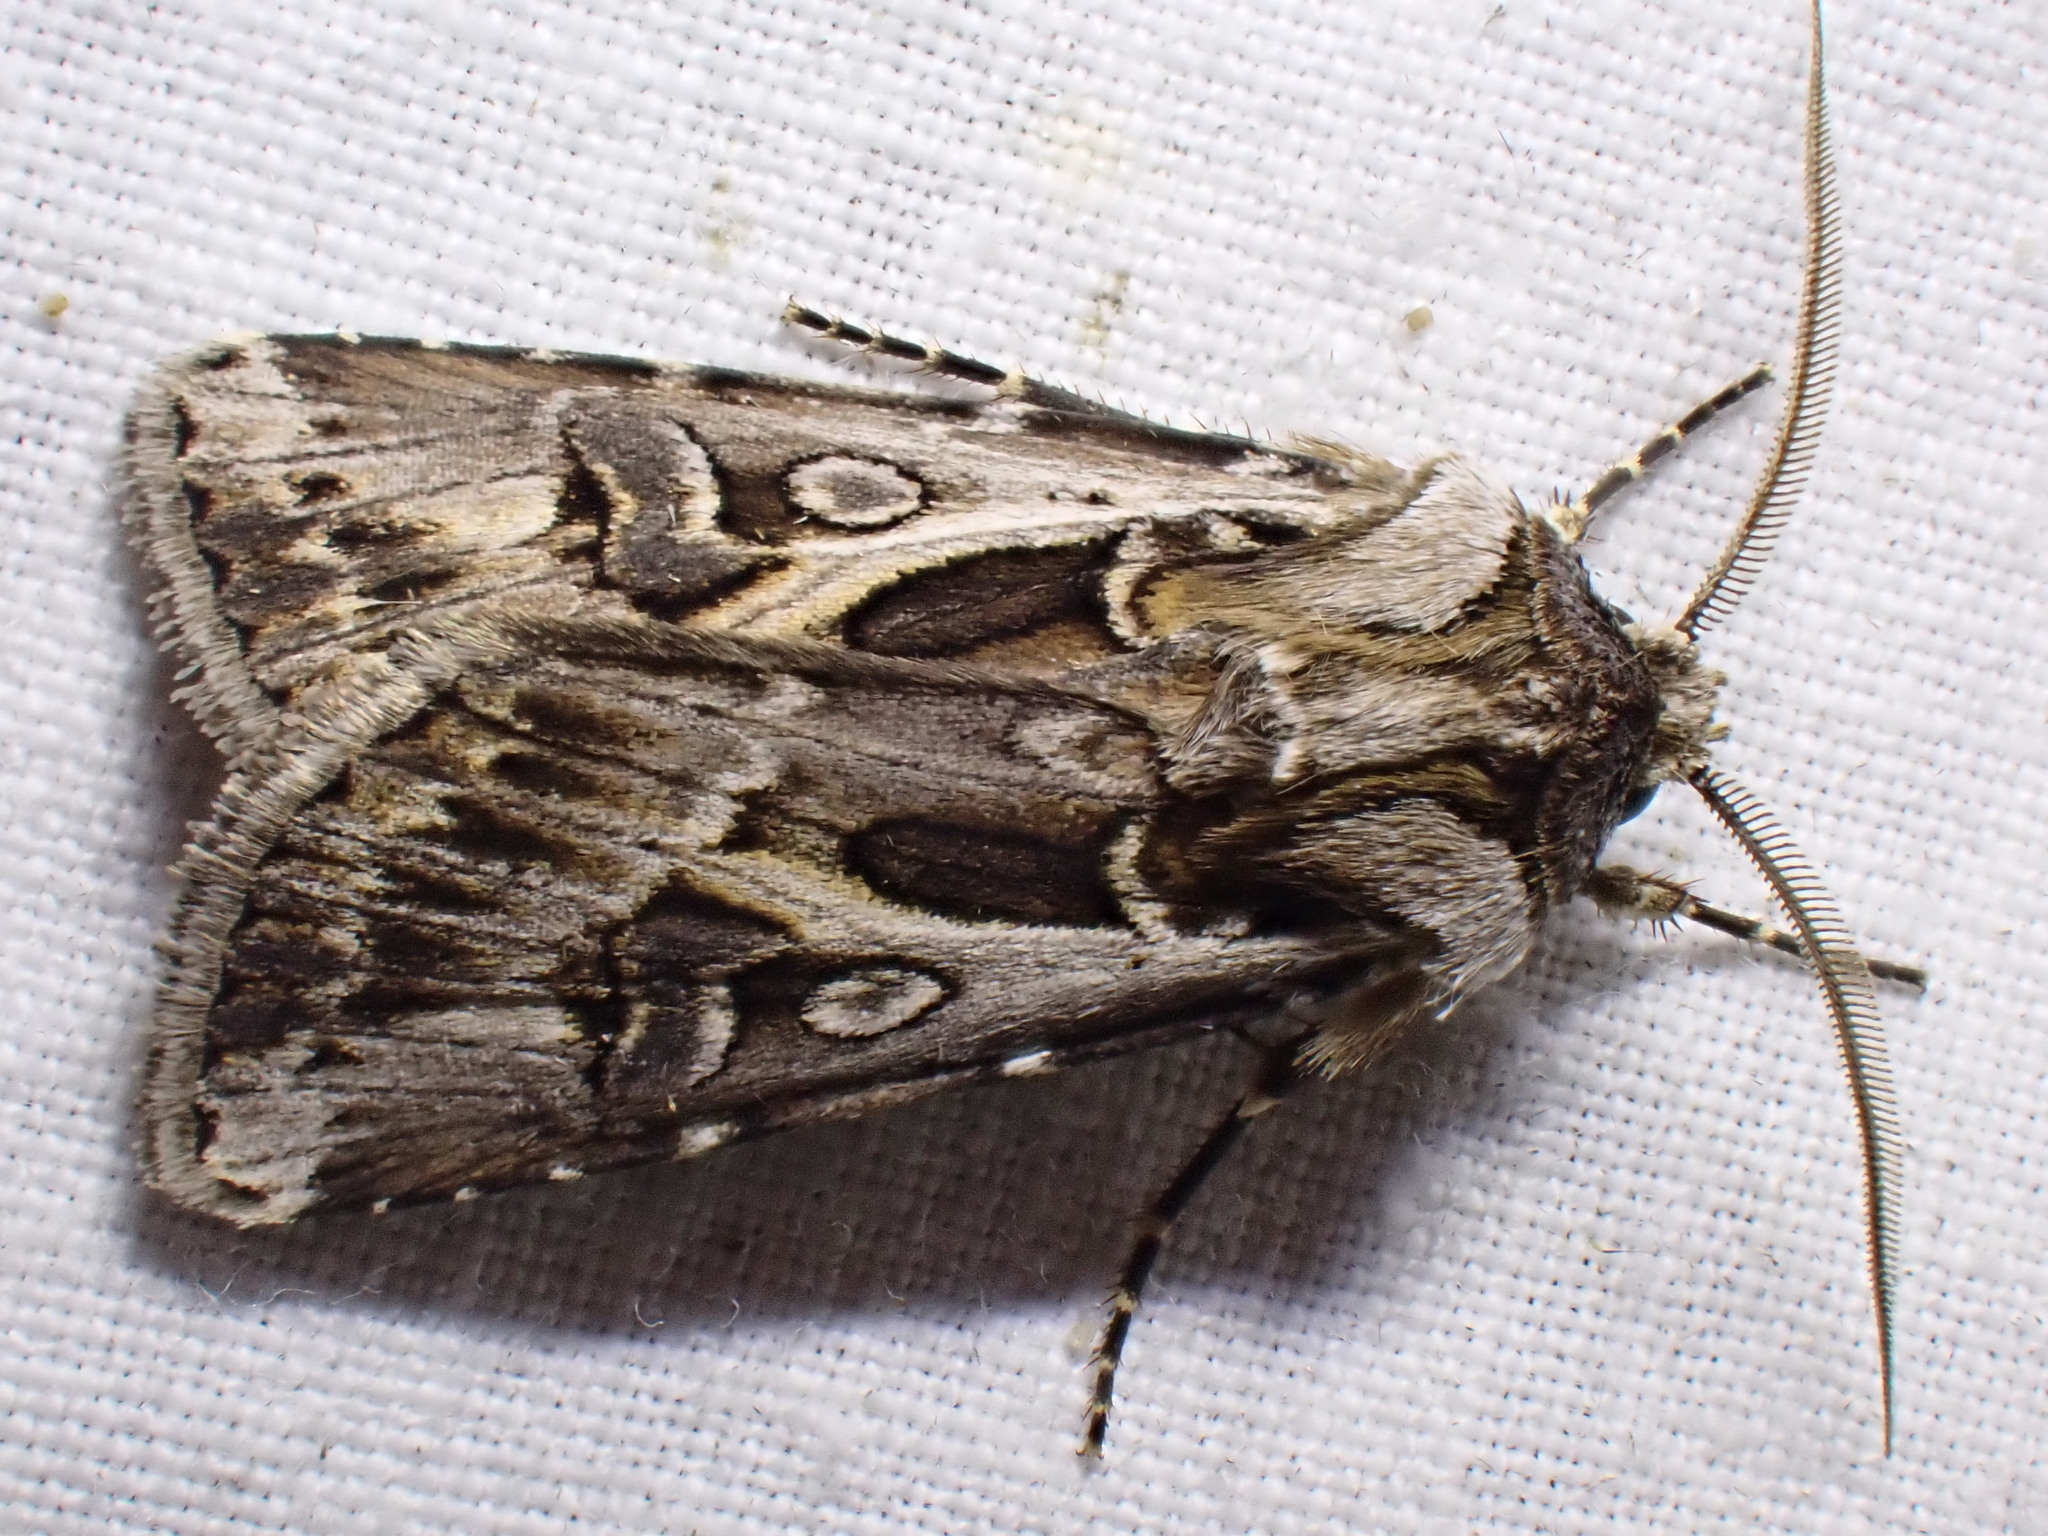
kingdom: Animalia
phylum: Arthropoda
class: Insecta
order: Lepidoptera
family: Noctuidae
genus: Agrotis
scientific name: Agrotis vestigialis
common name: Archer's dart
